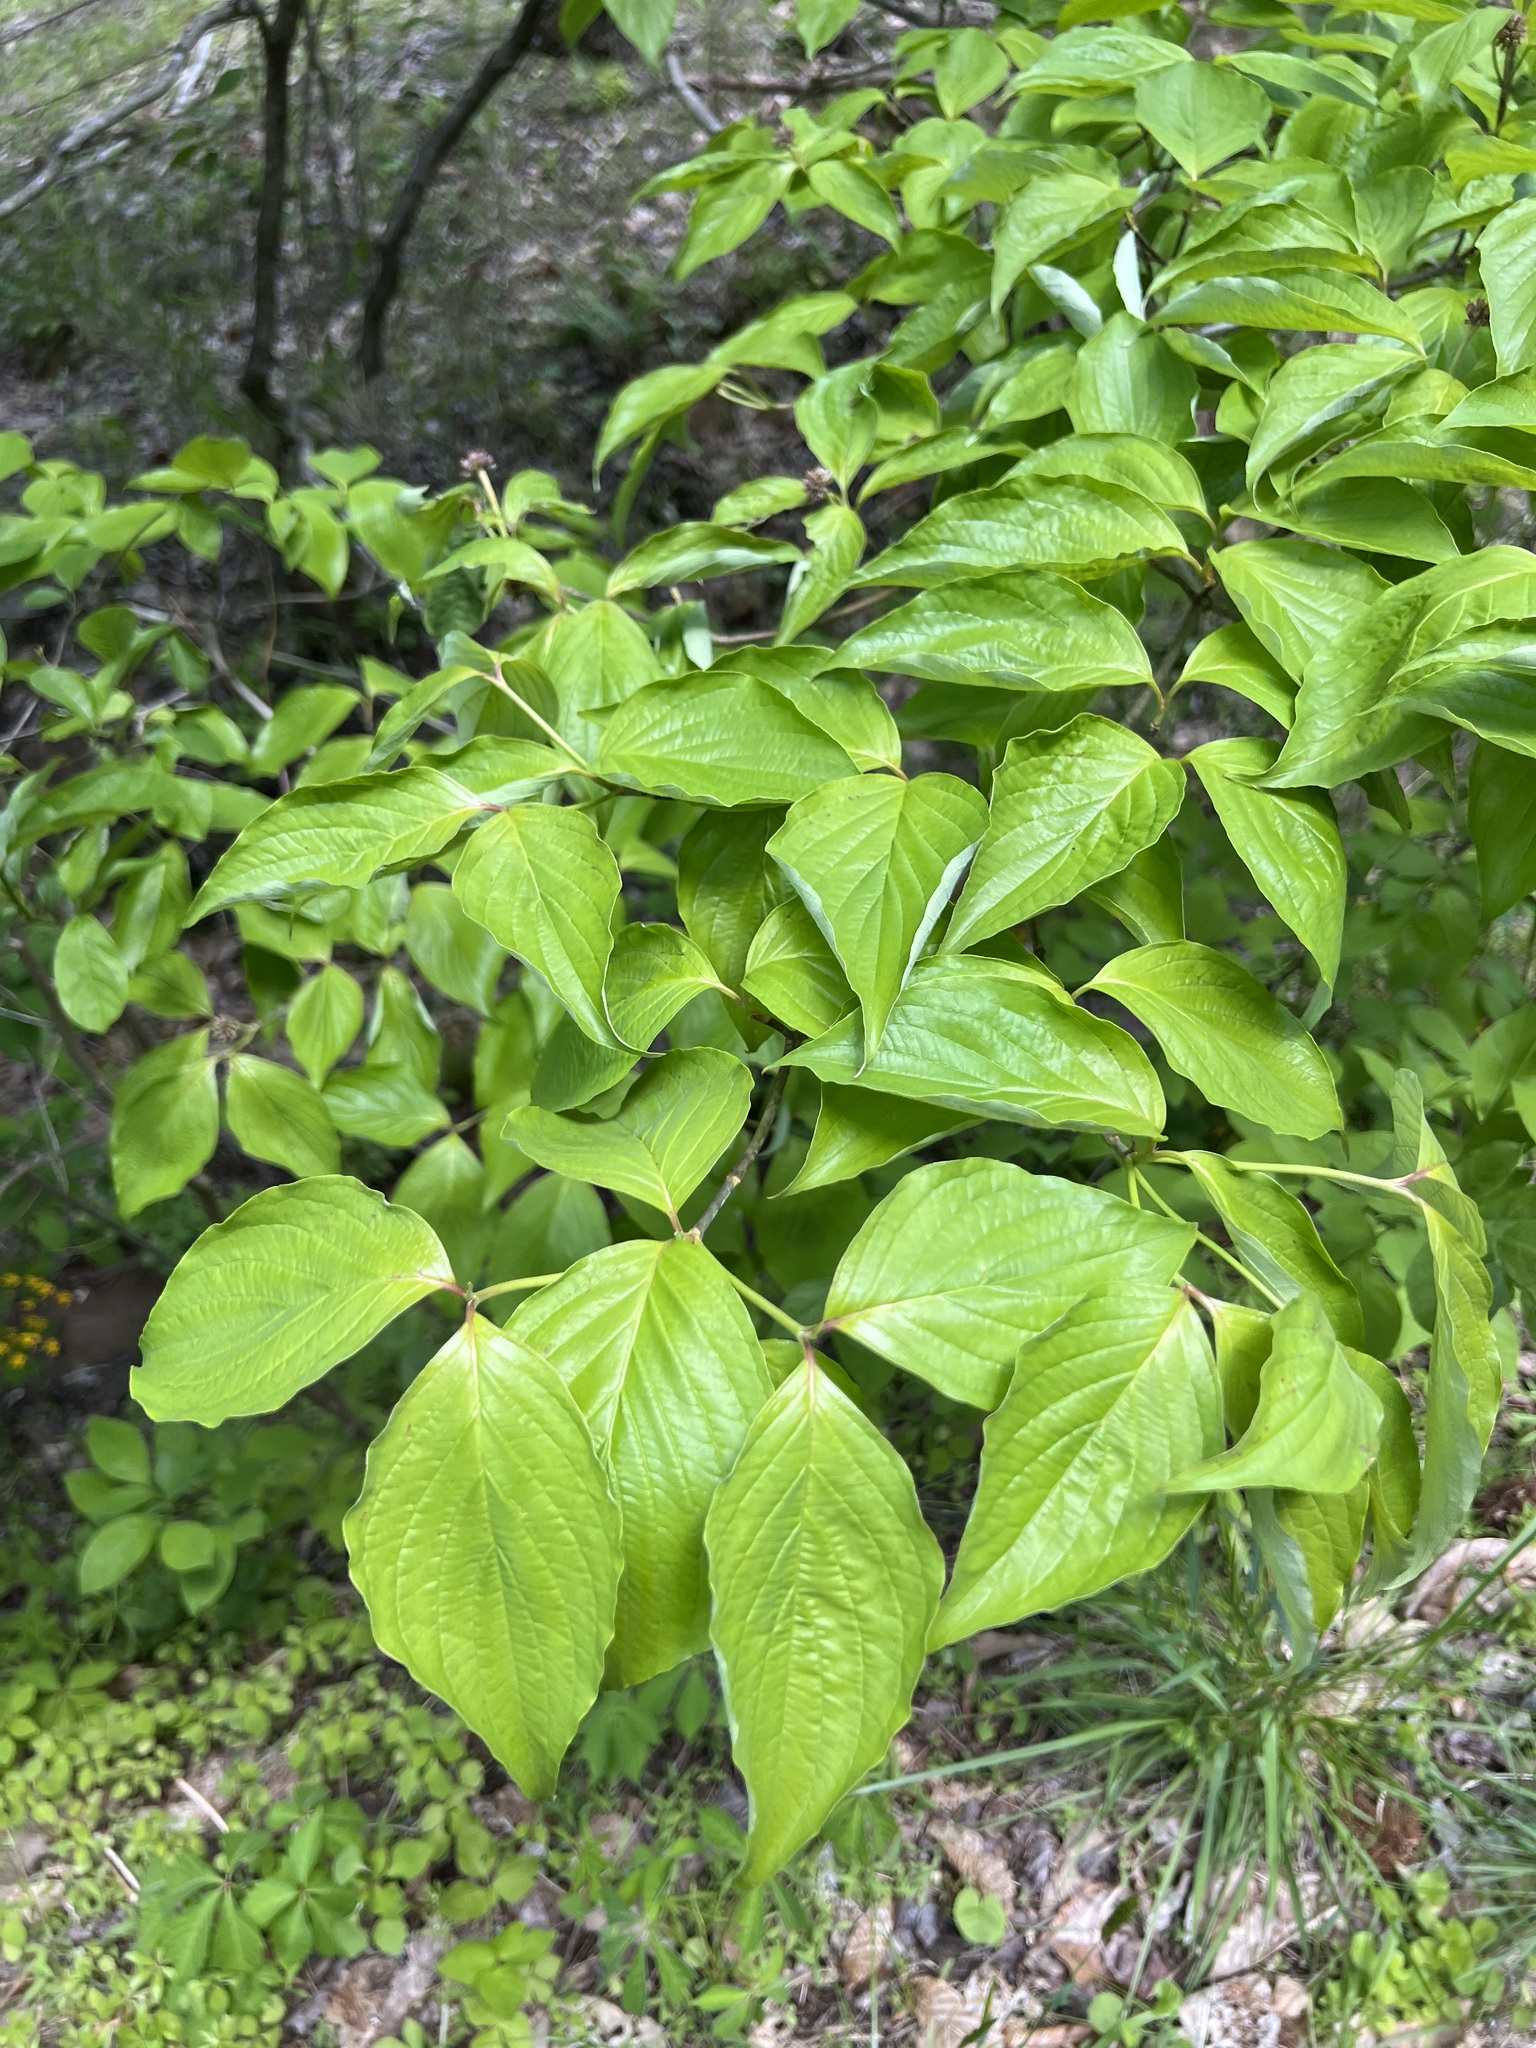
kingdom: Plantae
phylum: Tracheophyta
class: Magnoliopsida
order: Cornales
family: Cornaceae
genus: Cornus
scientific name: Cornus florida
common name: Flowering dogwood
